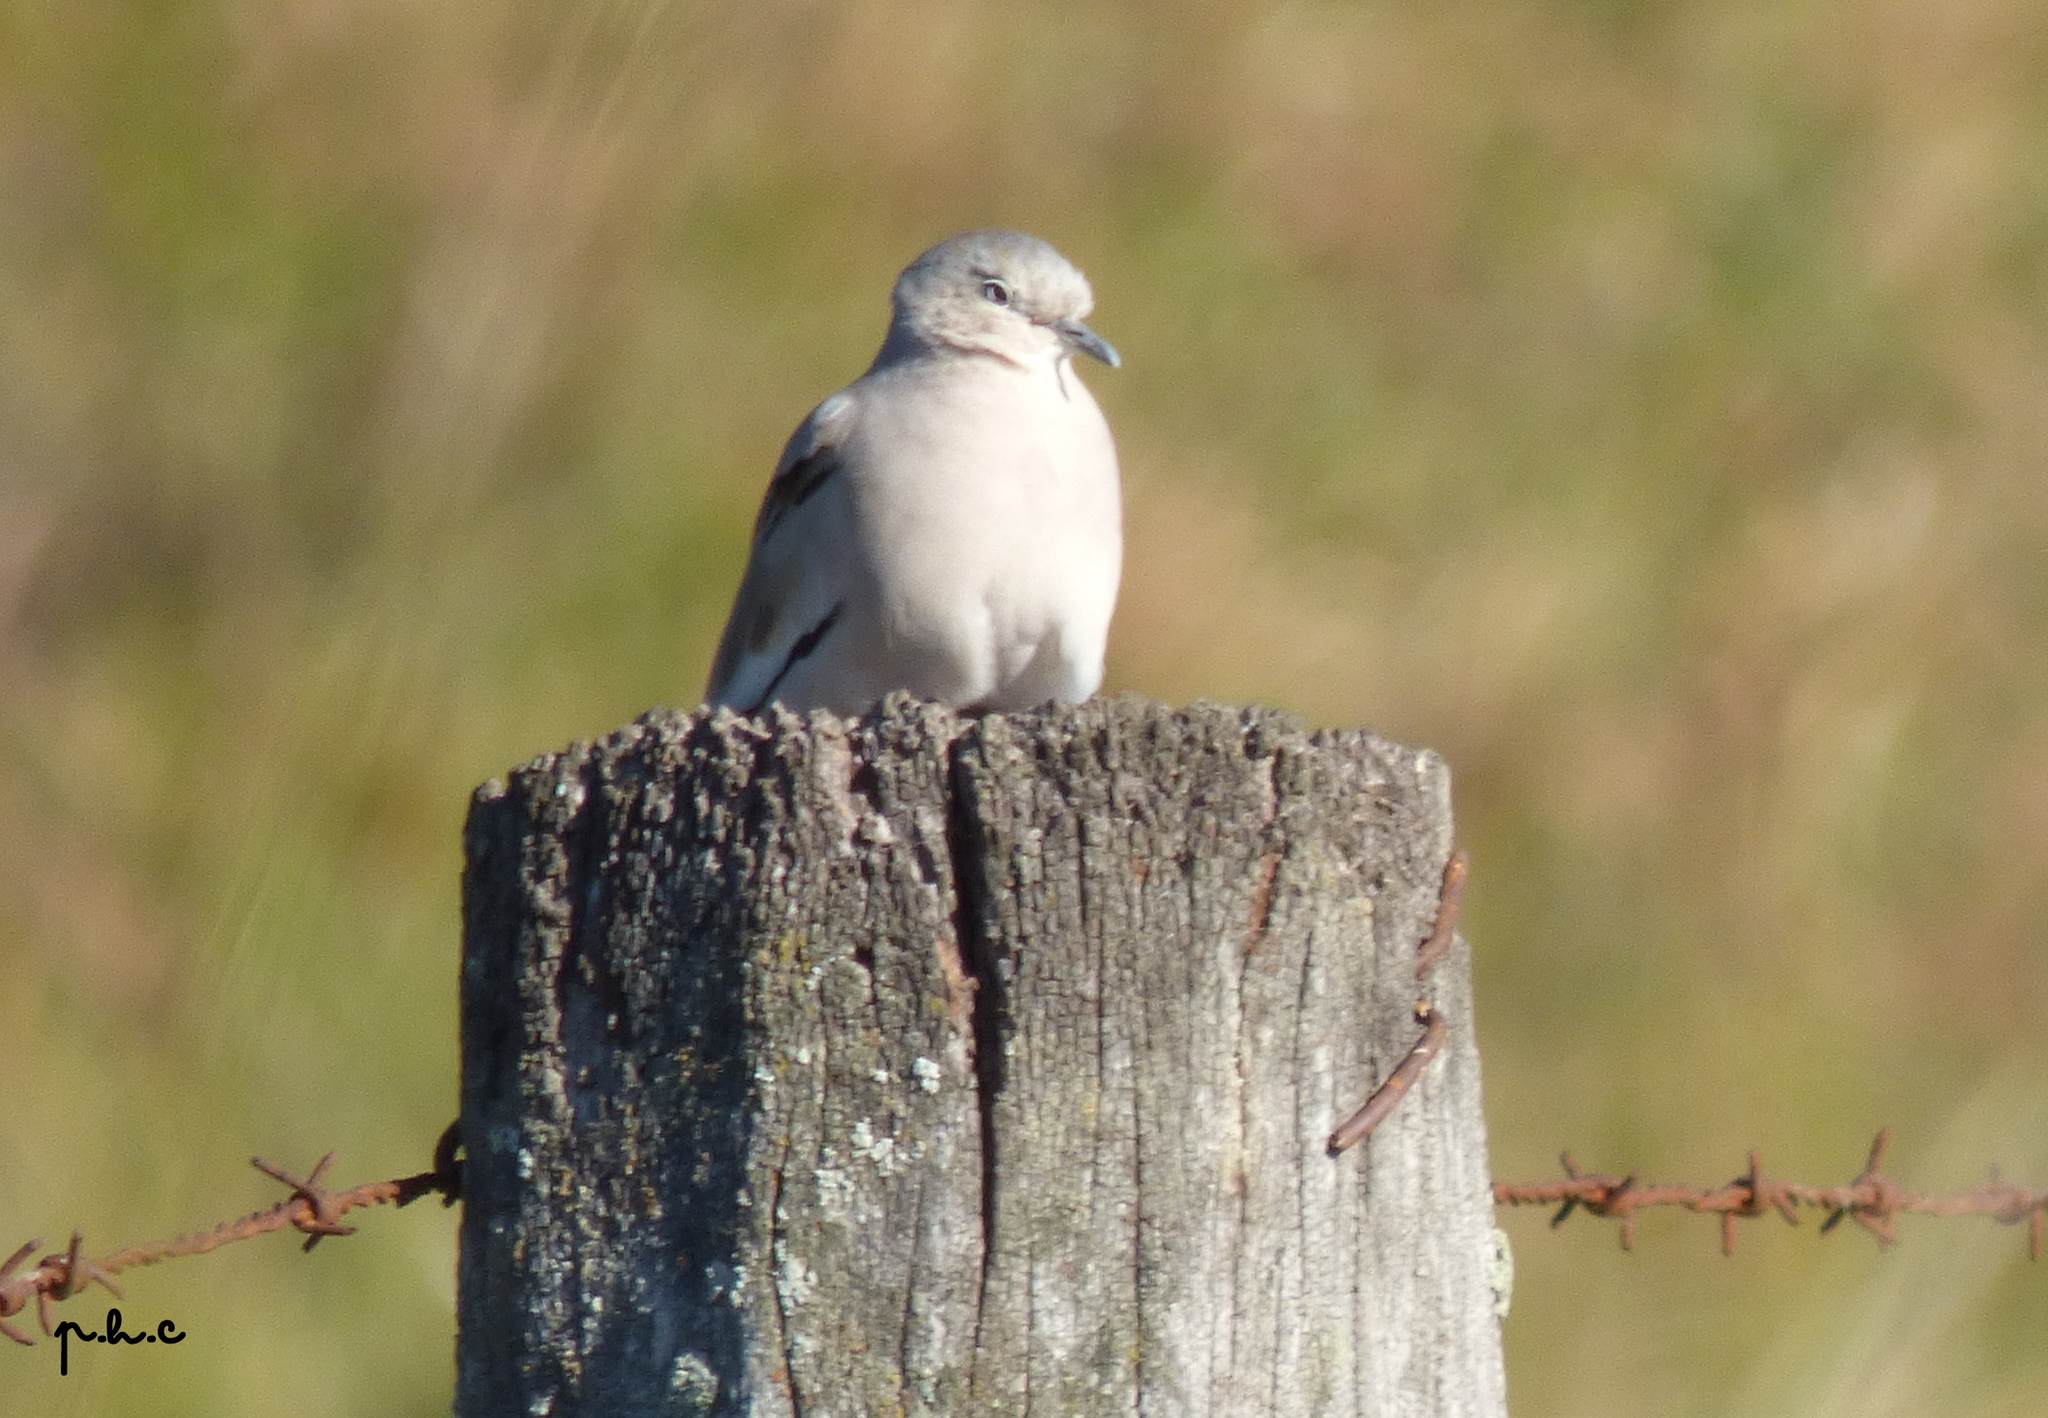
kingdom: Animalia
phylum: Chordata
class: Aves
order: Columbiformes
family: Columbidae
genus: Columbina
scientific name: Columbina picui
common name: Picui ground dove
